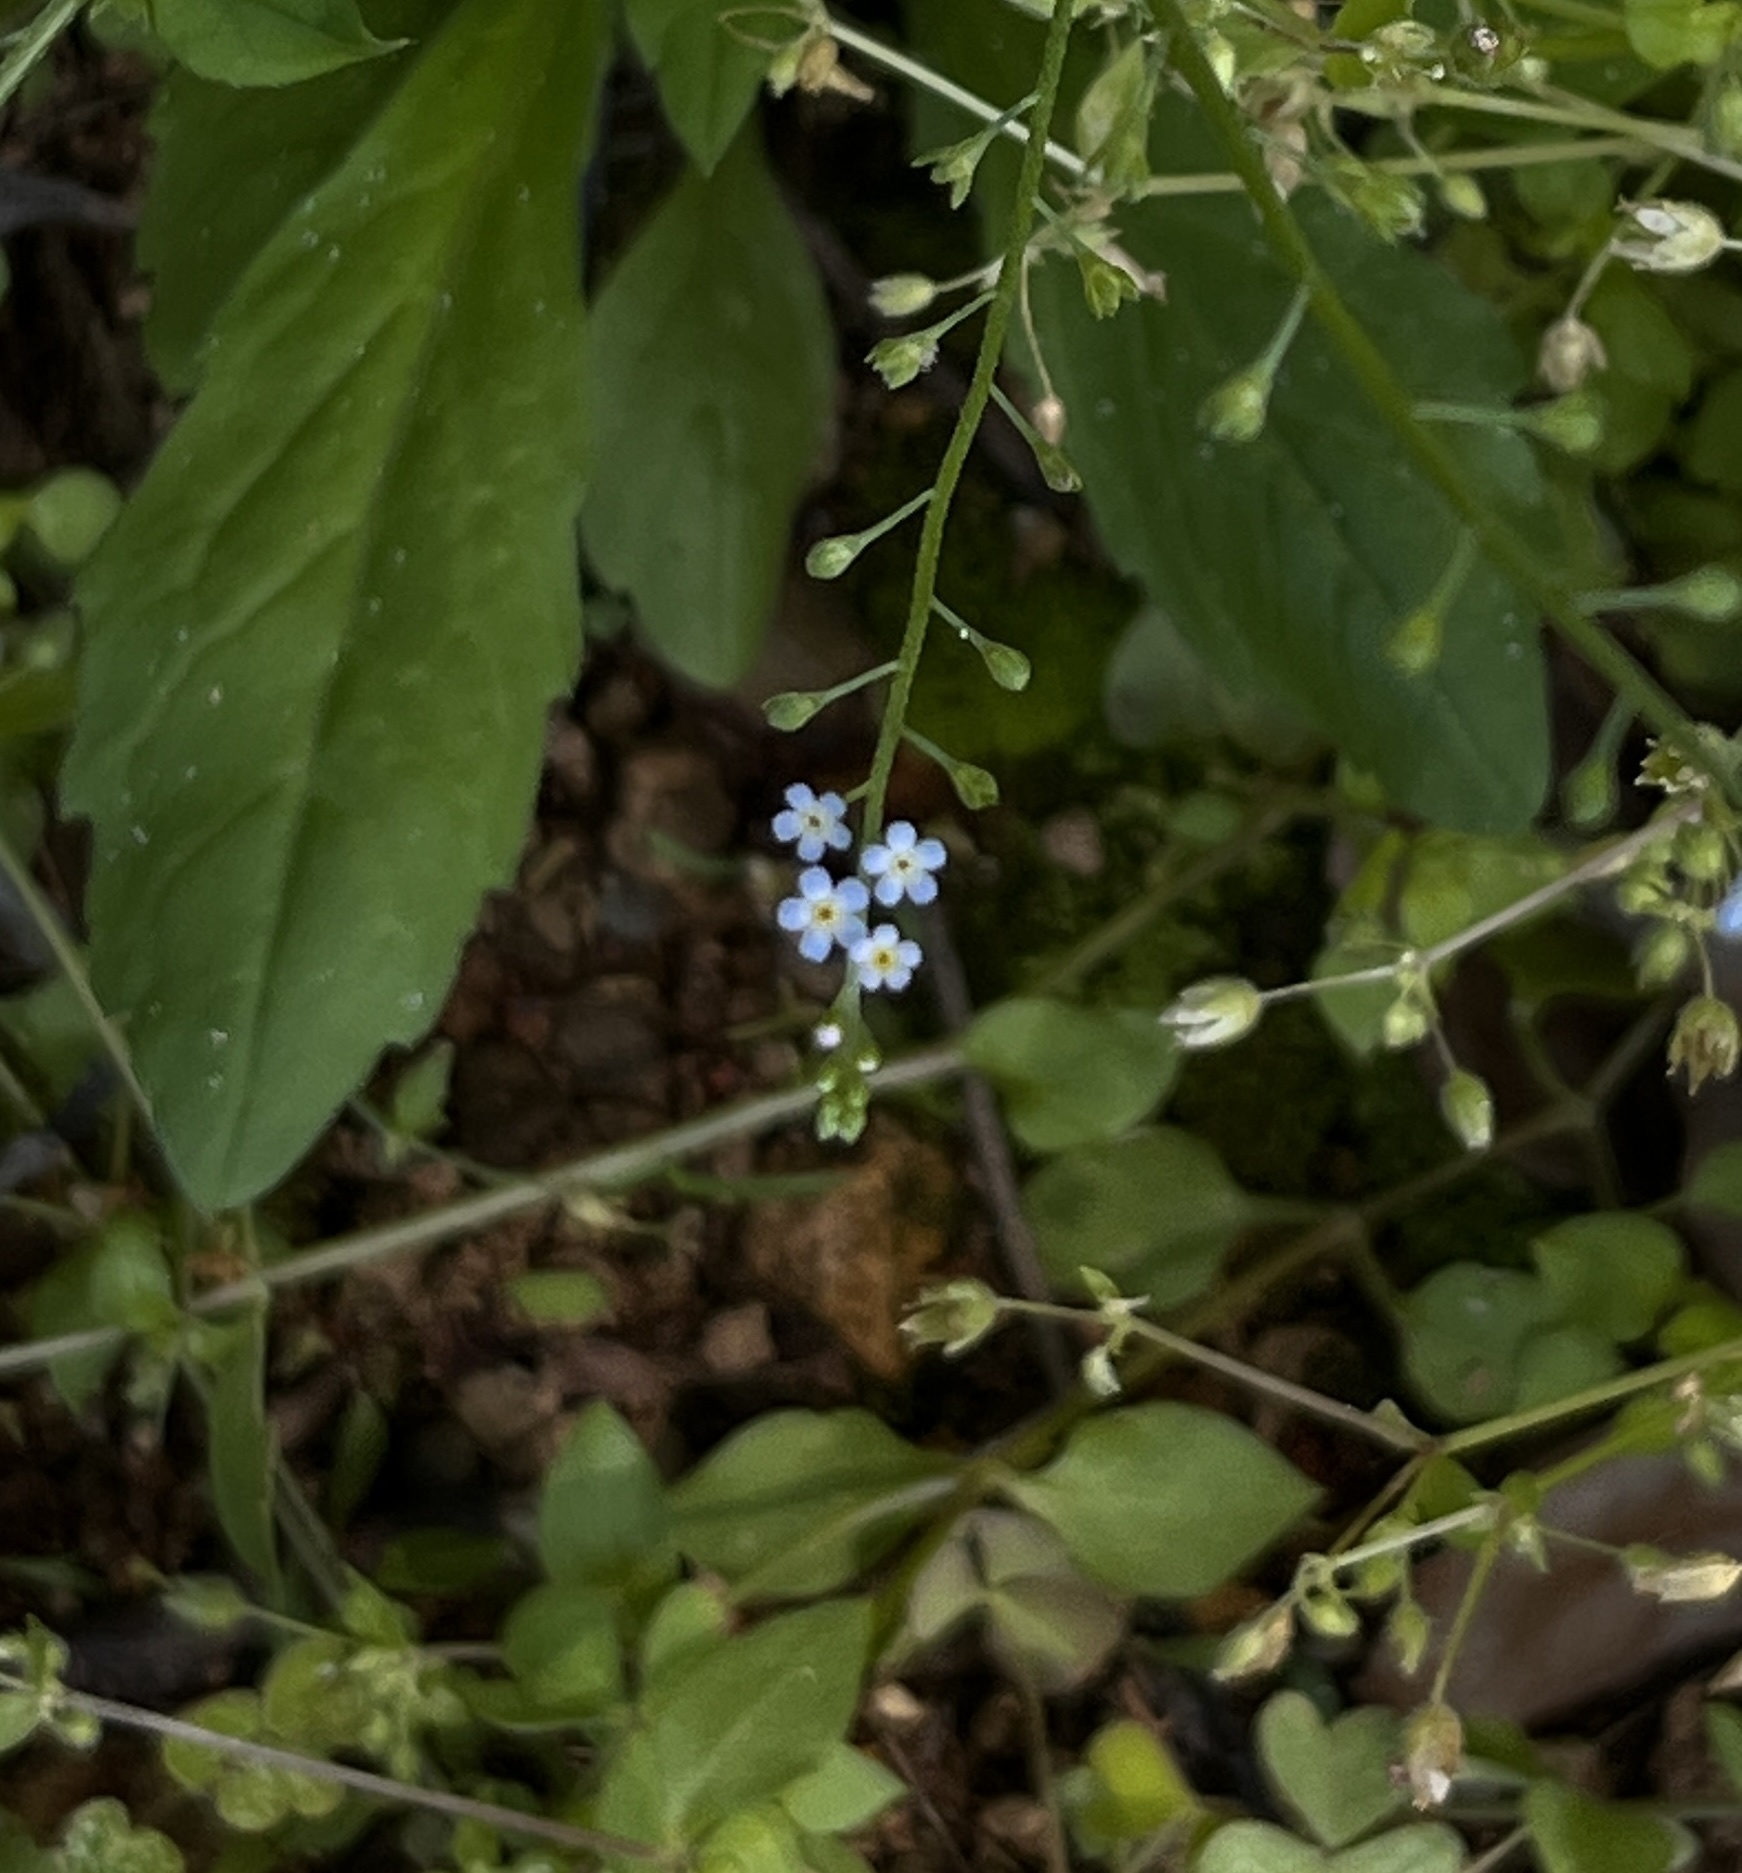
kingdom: Plantae
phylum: Tracheophyta
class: Magnoliopsida
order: Boraginales
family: Boraginaceae
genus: Trigonotis
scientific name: Trigonotis peduncularis
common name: Cucumber herb
